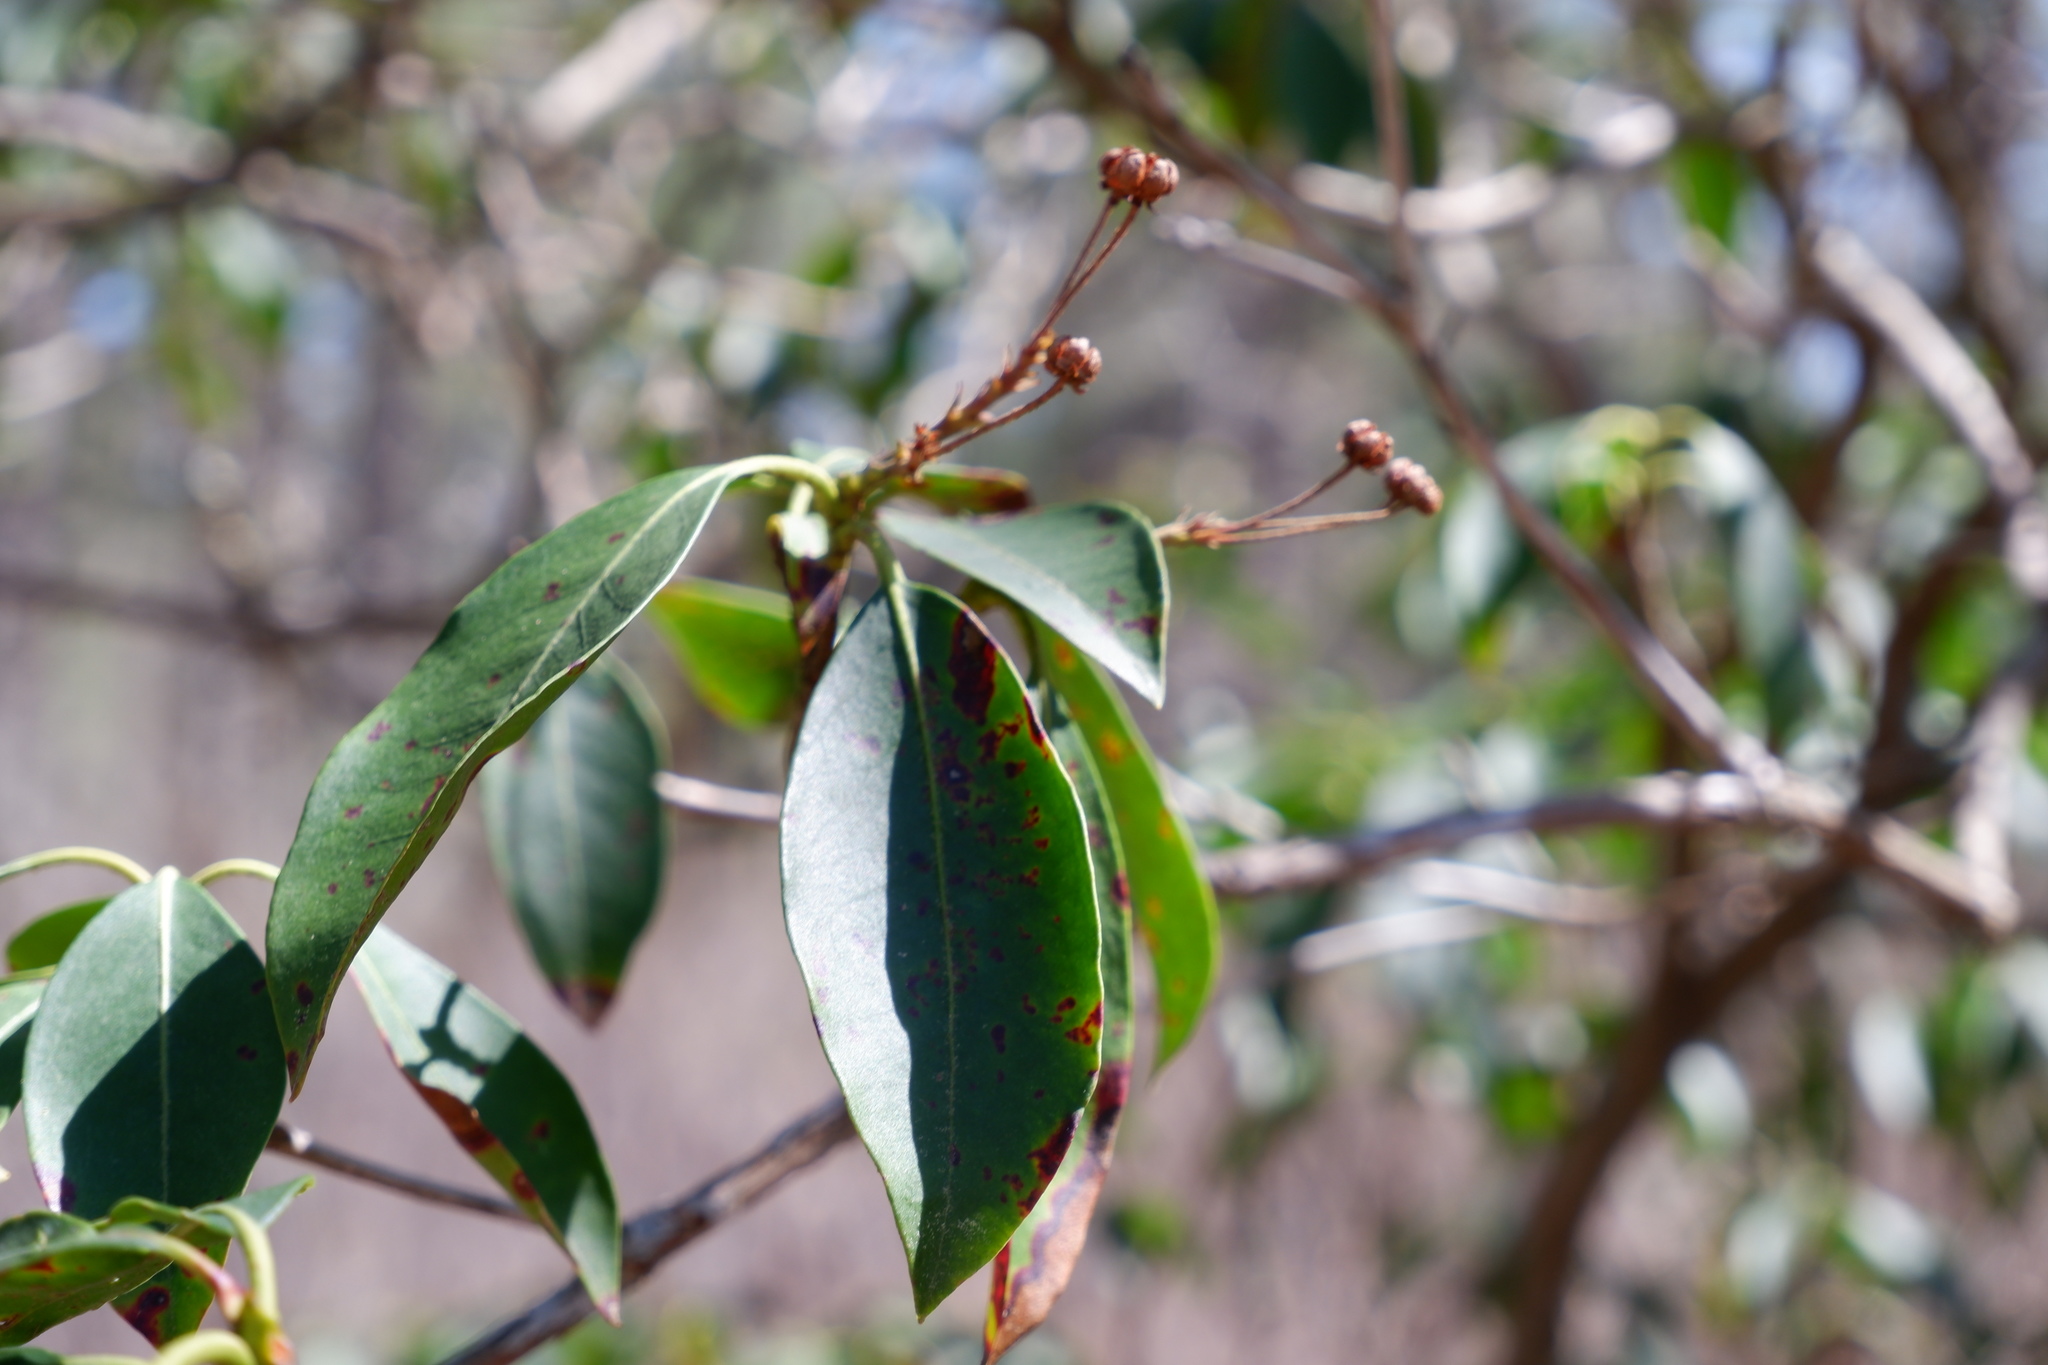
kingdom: Fungi
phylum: Ascomycota
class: Dothideomycetes
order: Mycosphaerellales
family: Mycosphaerellaceae
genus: Mycosphaerella
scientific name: Mycosphaerella colorata
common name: Mountain laurel leaf spot
